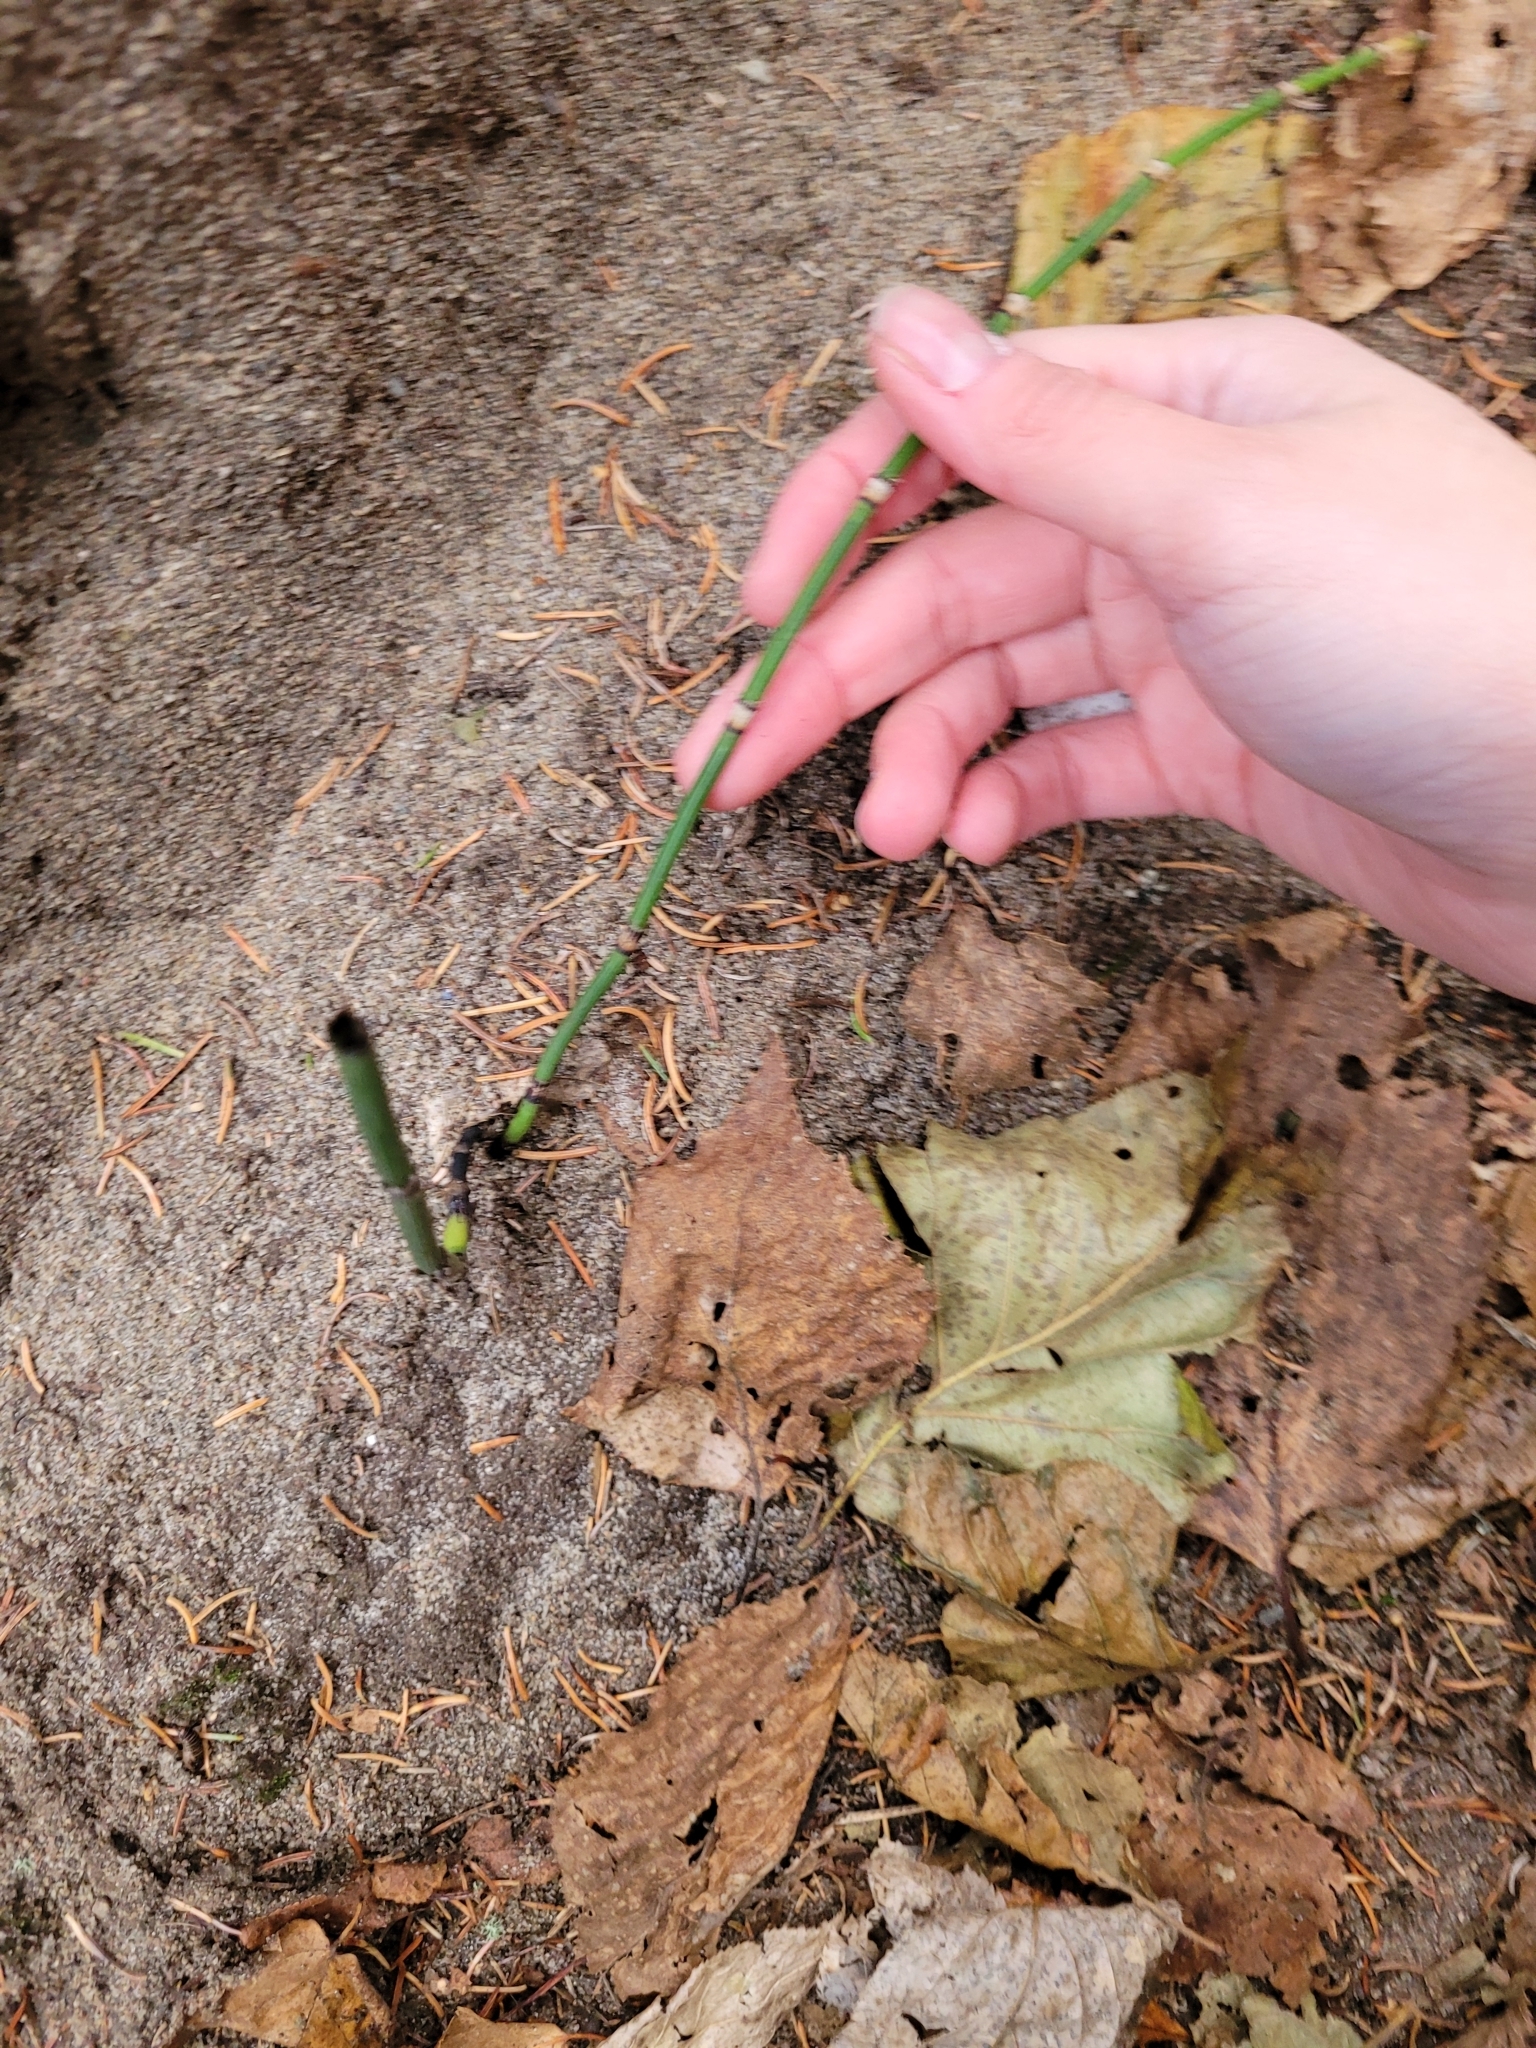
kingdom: Plantae
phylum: Tracheophyta
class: Polypodiopsida
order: Equisetales
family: Equisetaceae
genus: Equisetum
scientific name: Equisetum hyemale
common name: Rough horsetail
